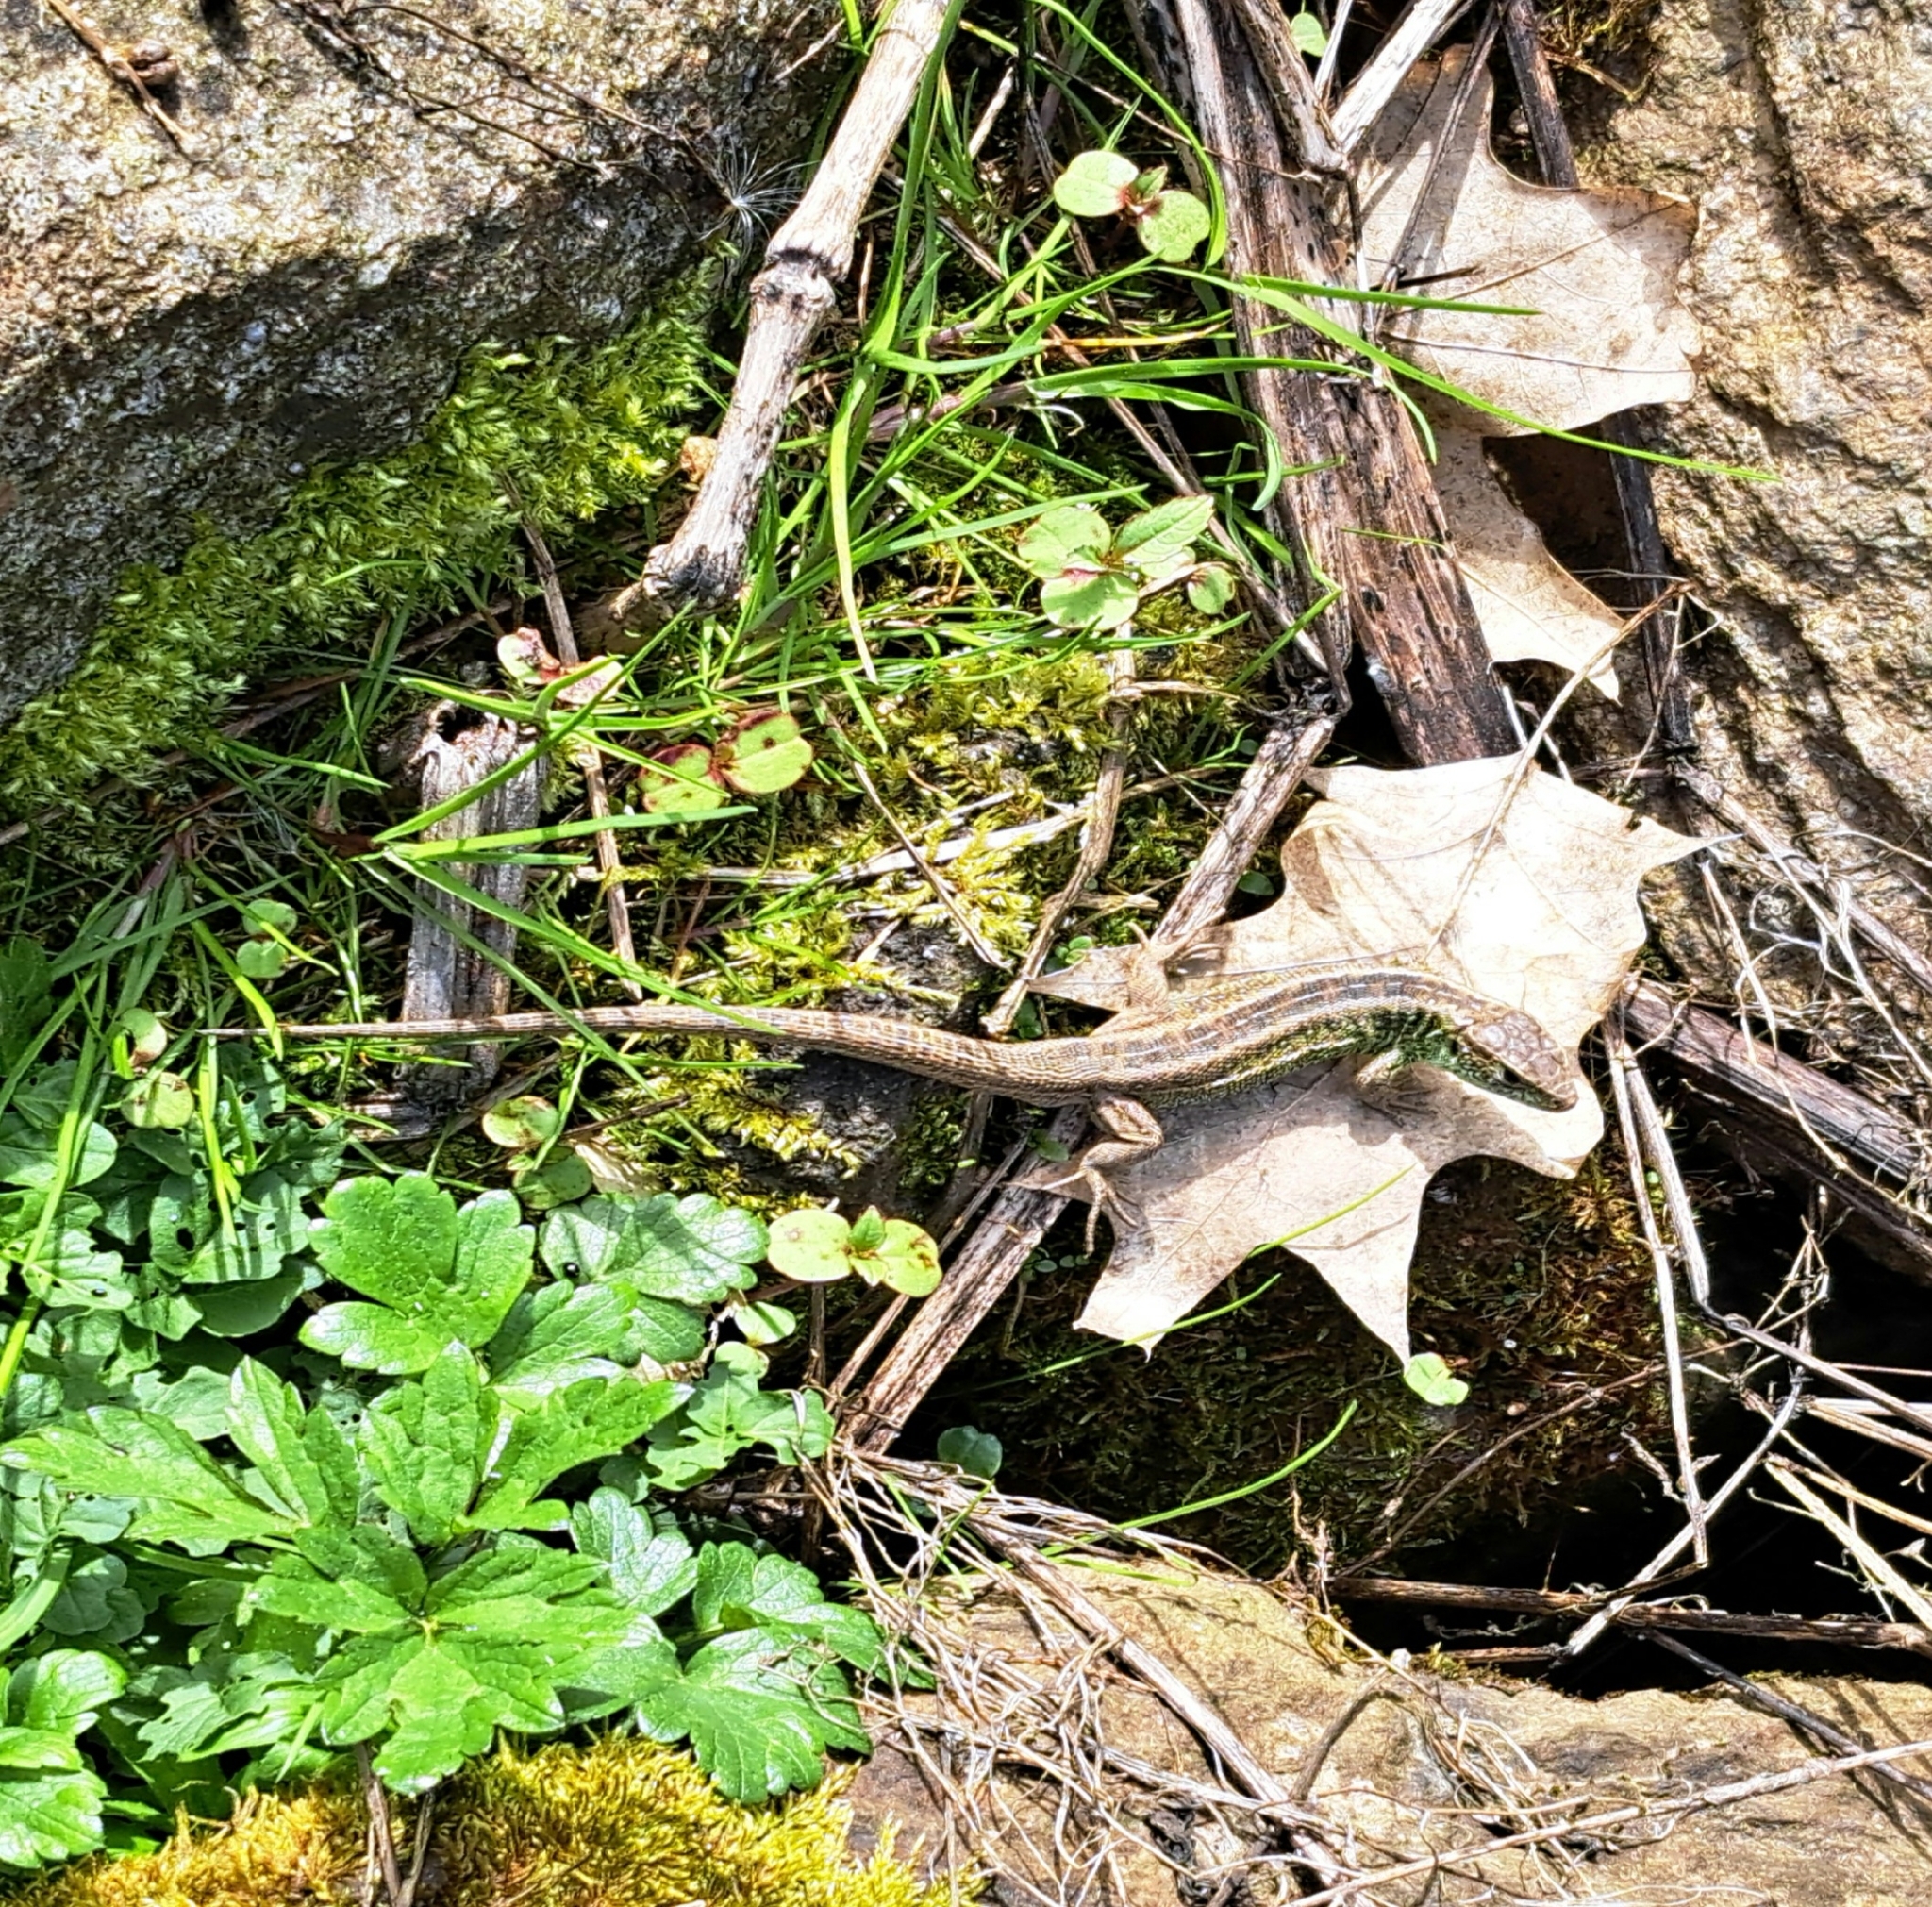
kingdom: Animalia
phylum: Chordata
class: Squamata
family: Lacertidae
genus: Lacerta
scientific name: Lacerta agilis
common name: Sand lizard
